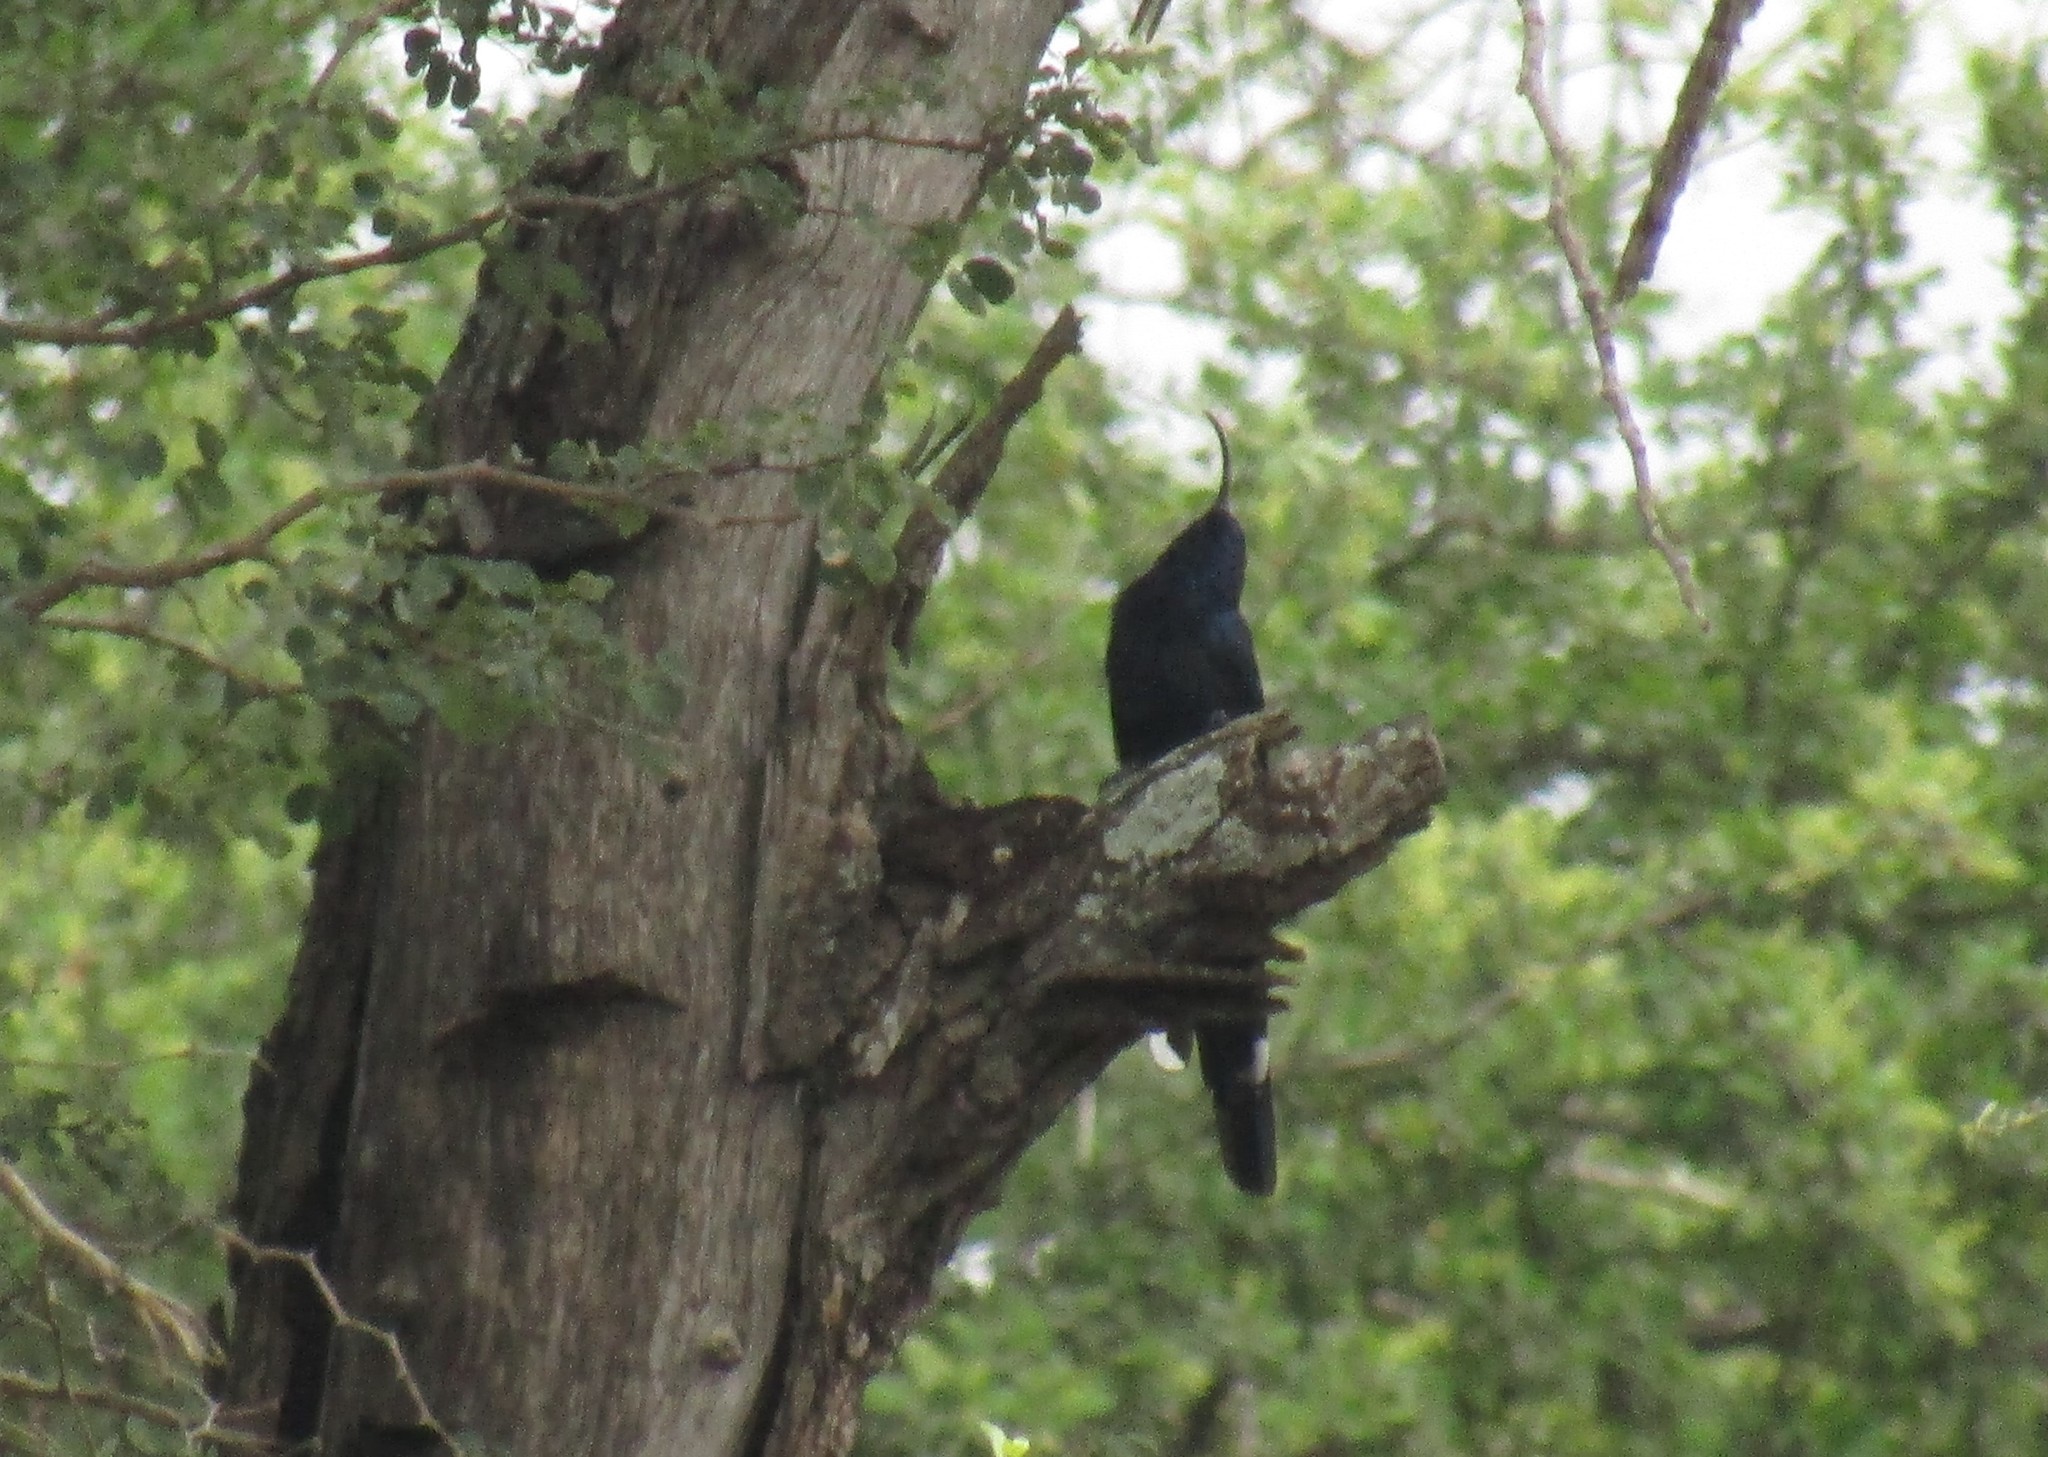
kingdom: Animalia
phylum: Chordata
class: Aves
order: Bucerotiformes
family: Phoeniculidae
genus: Rhinopomastus
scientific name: Rhinopomastus cyanomelas
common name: Common scimitarbill
